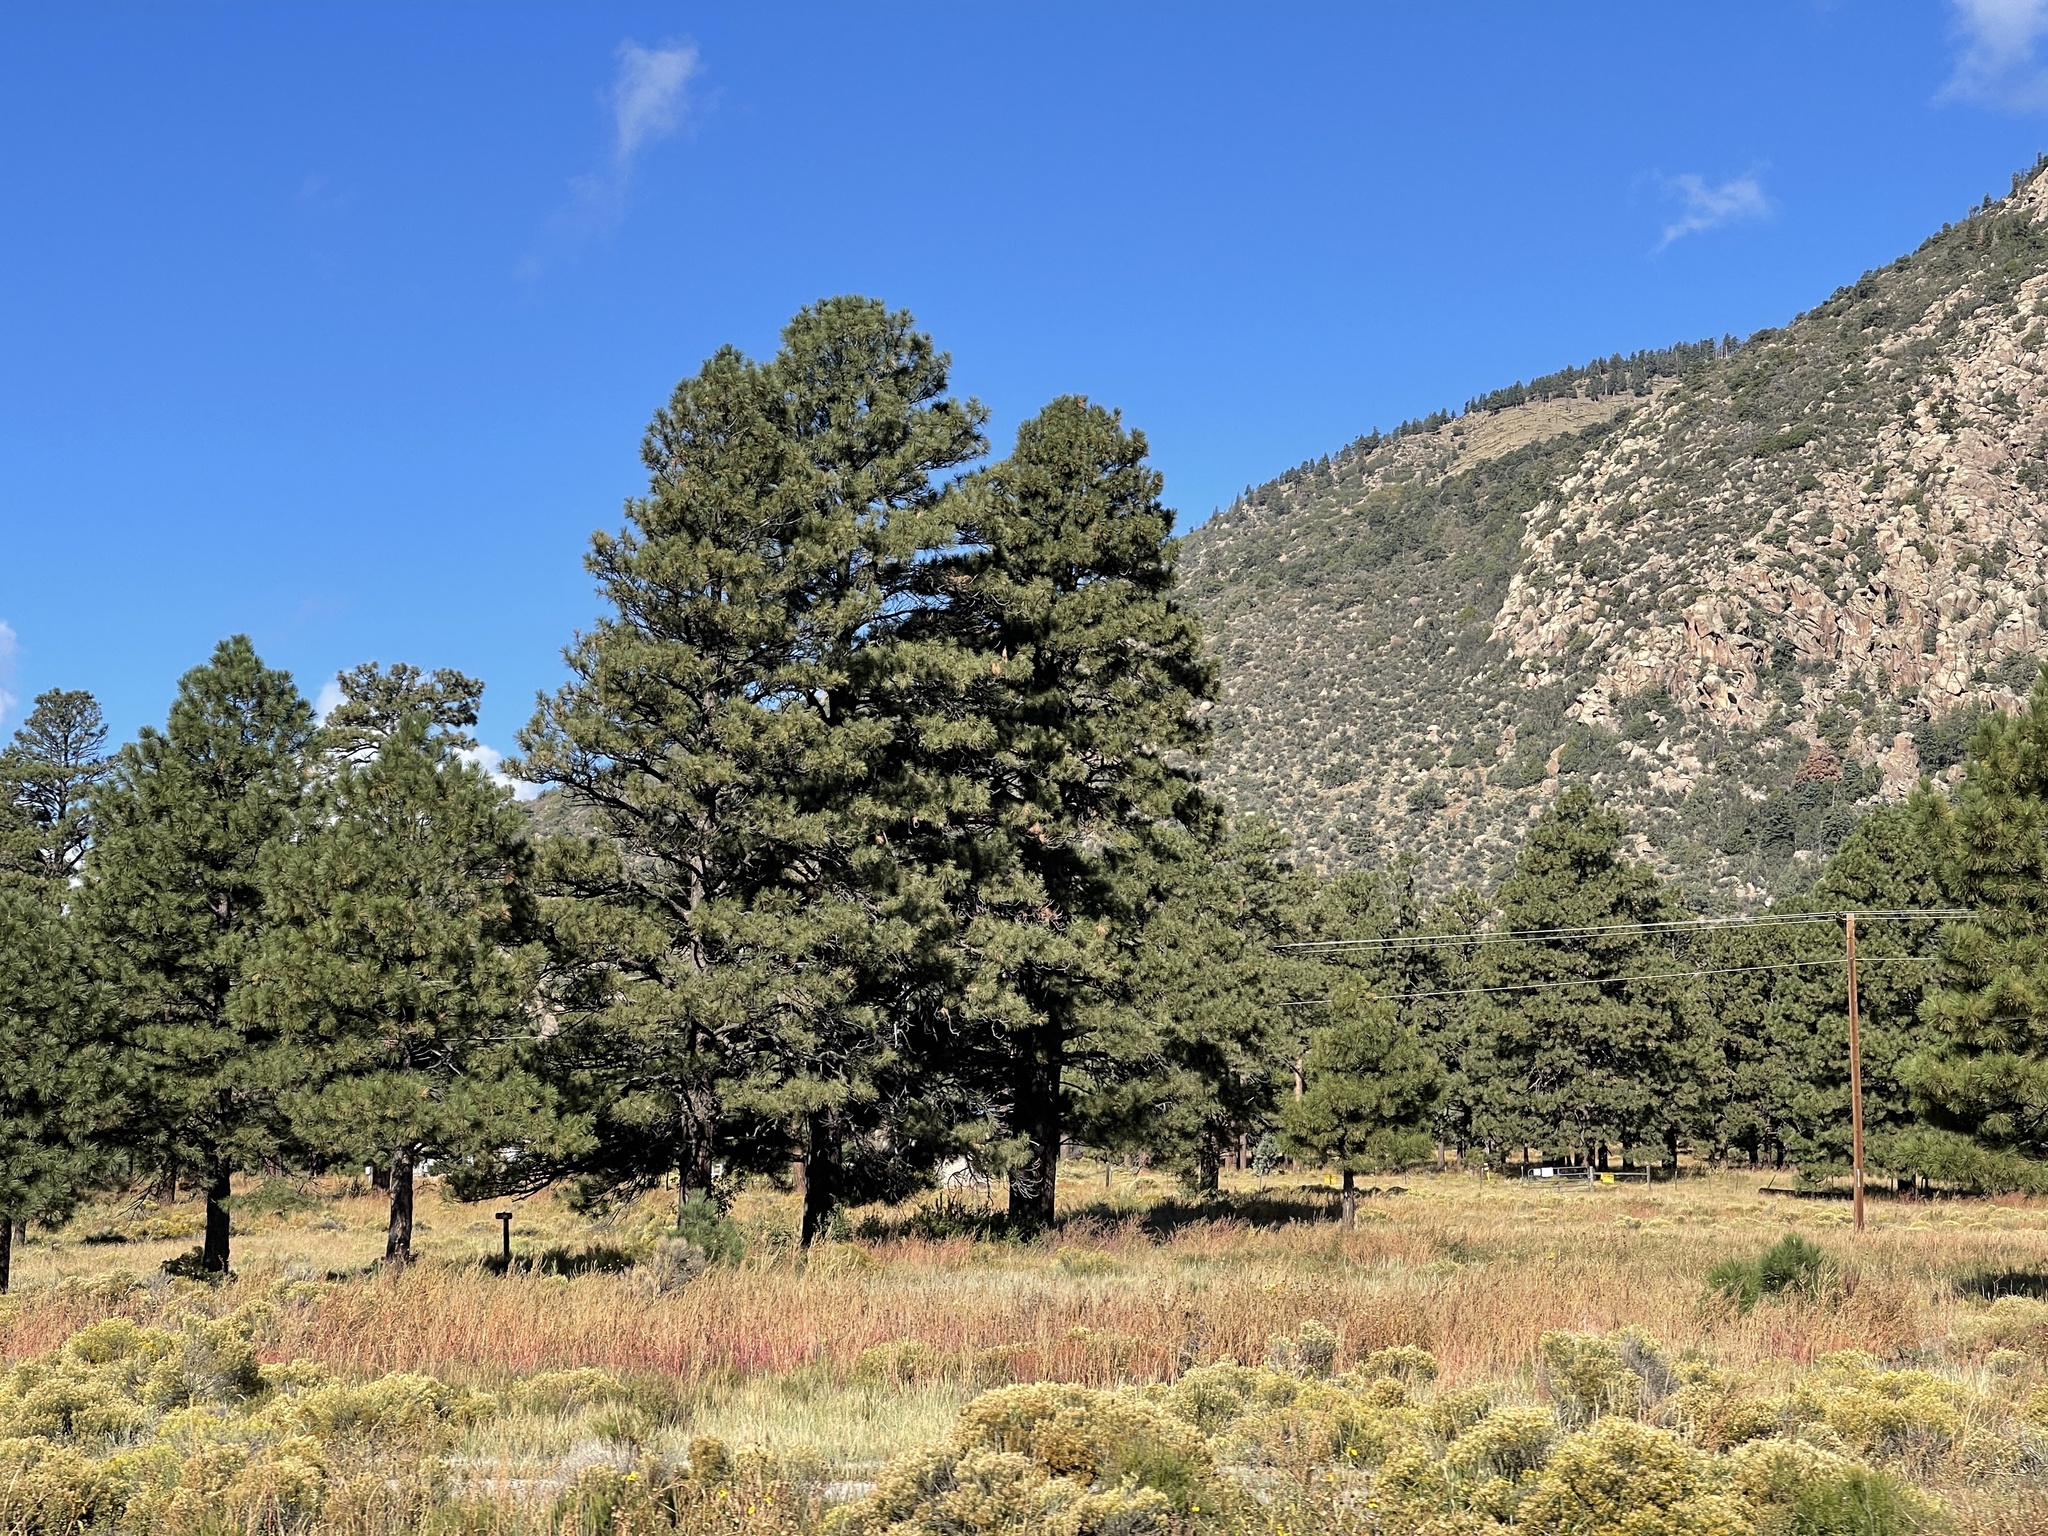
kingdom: Plantae
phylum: Tracheophyta
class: Pinopsida
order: Pinales
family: Pinaceae
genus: Pinus
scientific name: Pinus ponderosa
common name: Western yellow-pine
